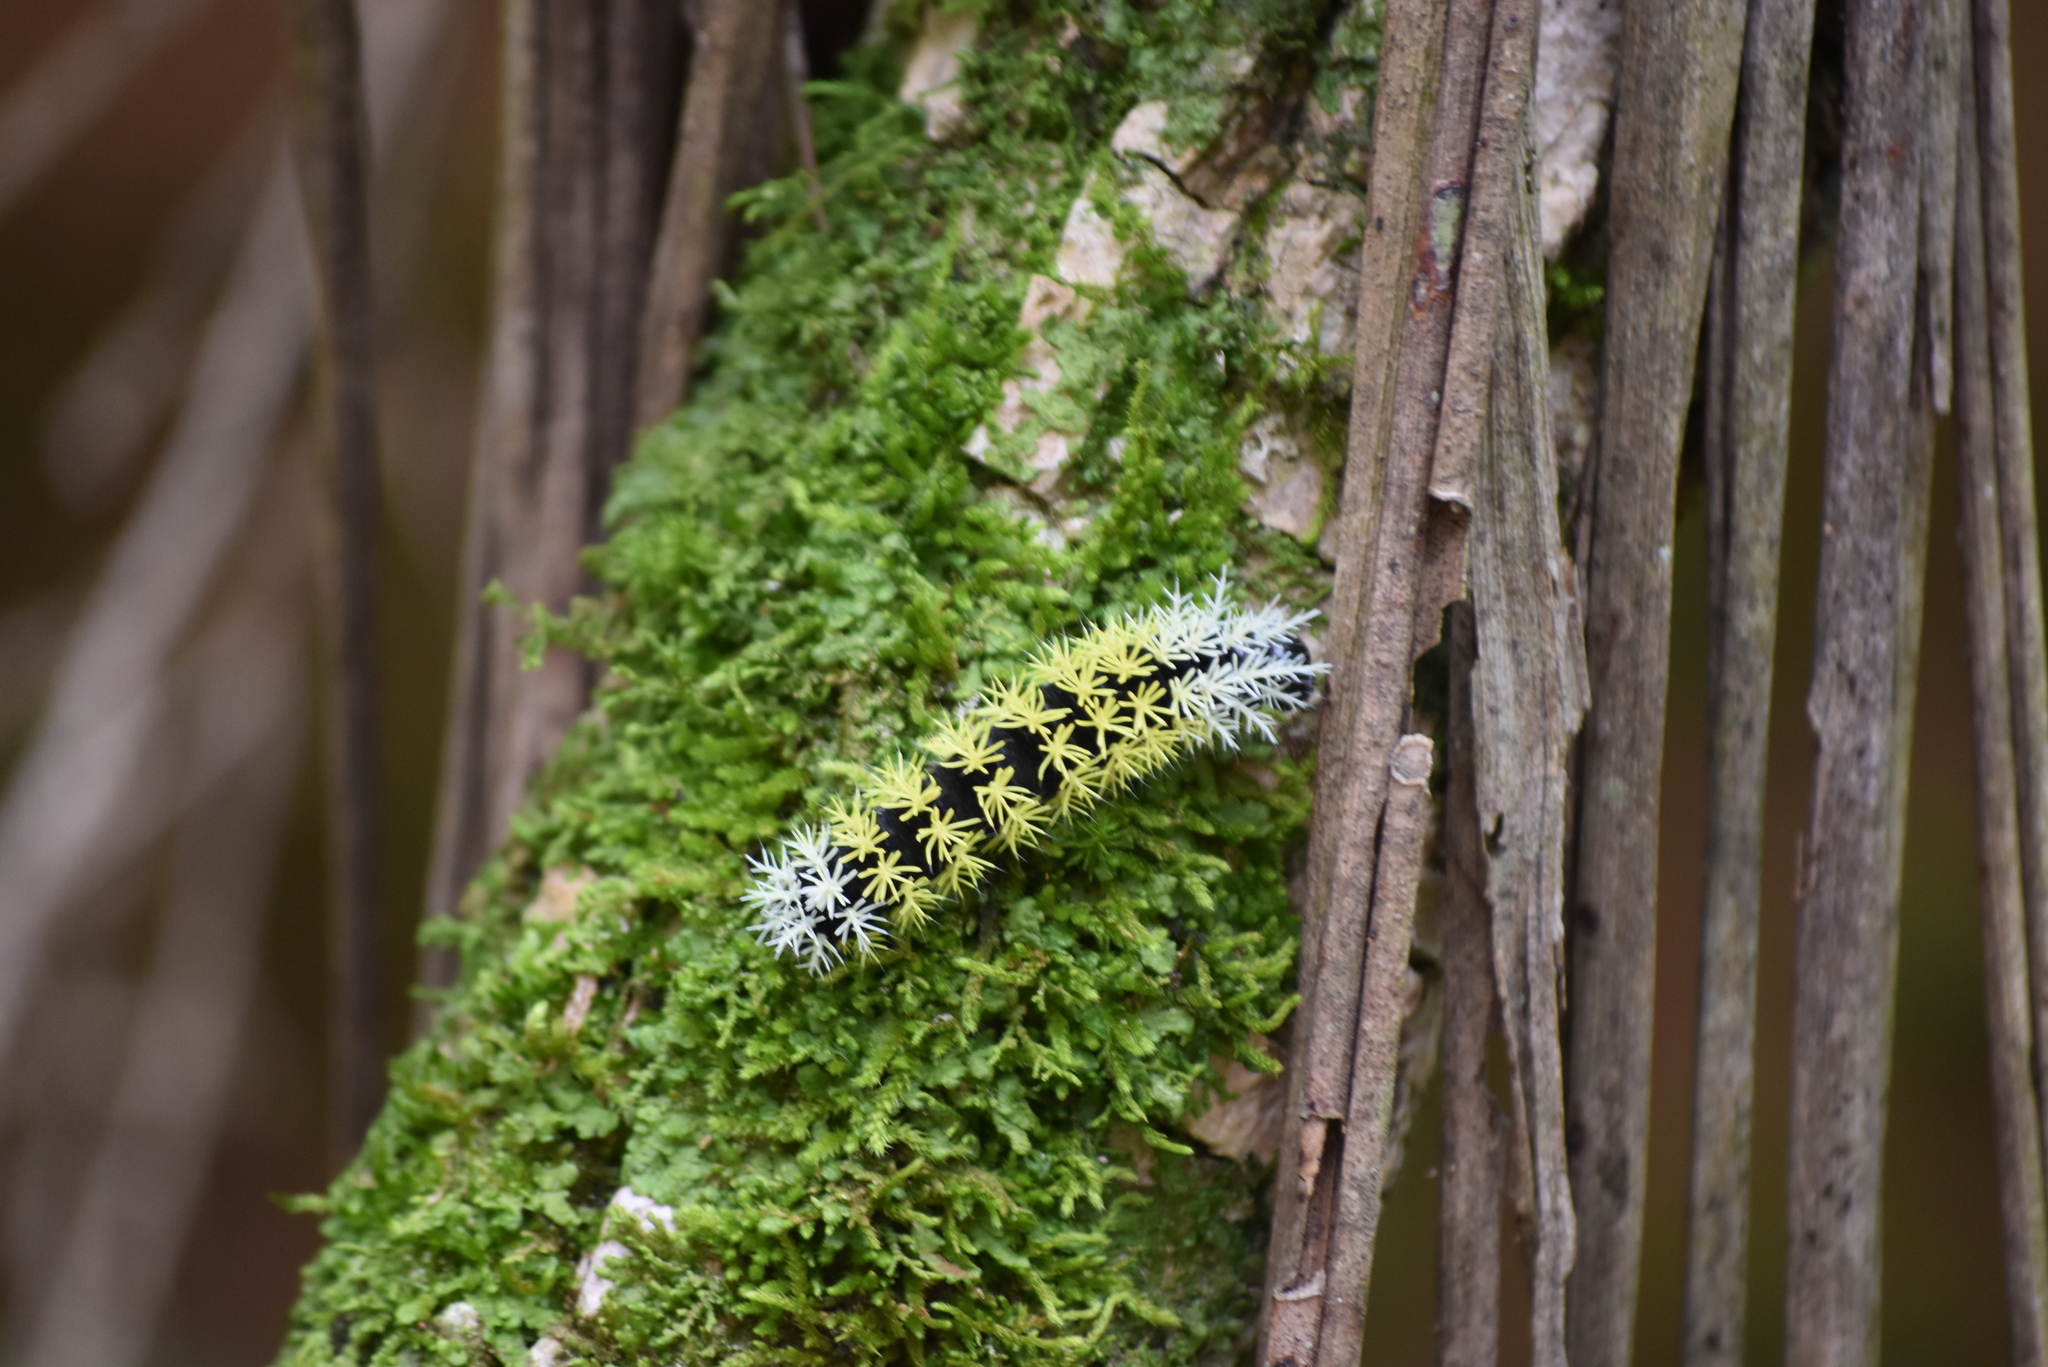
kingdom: Animalia
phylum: Arthropoda
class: Insecta
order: Lepidoptera
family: Saturniidae
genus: Leucanella
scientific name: Leucanella memusae
